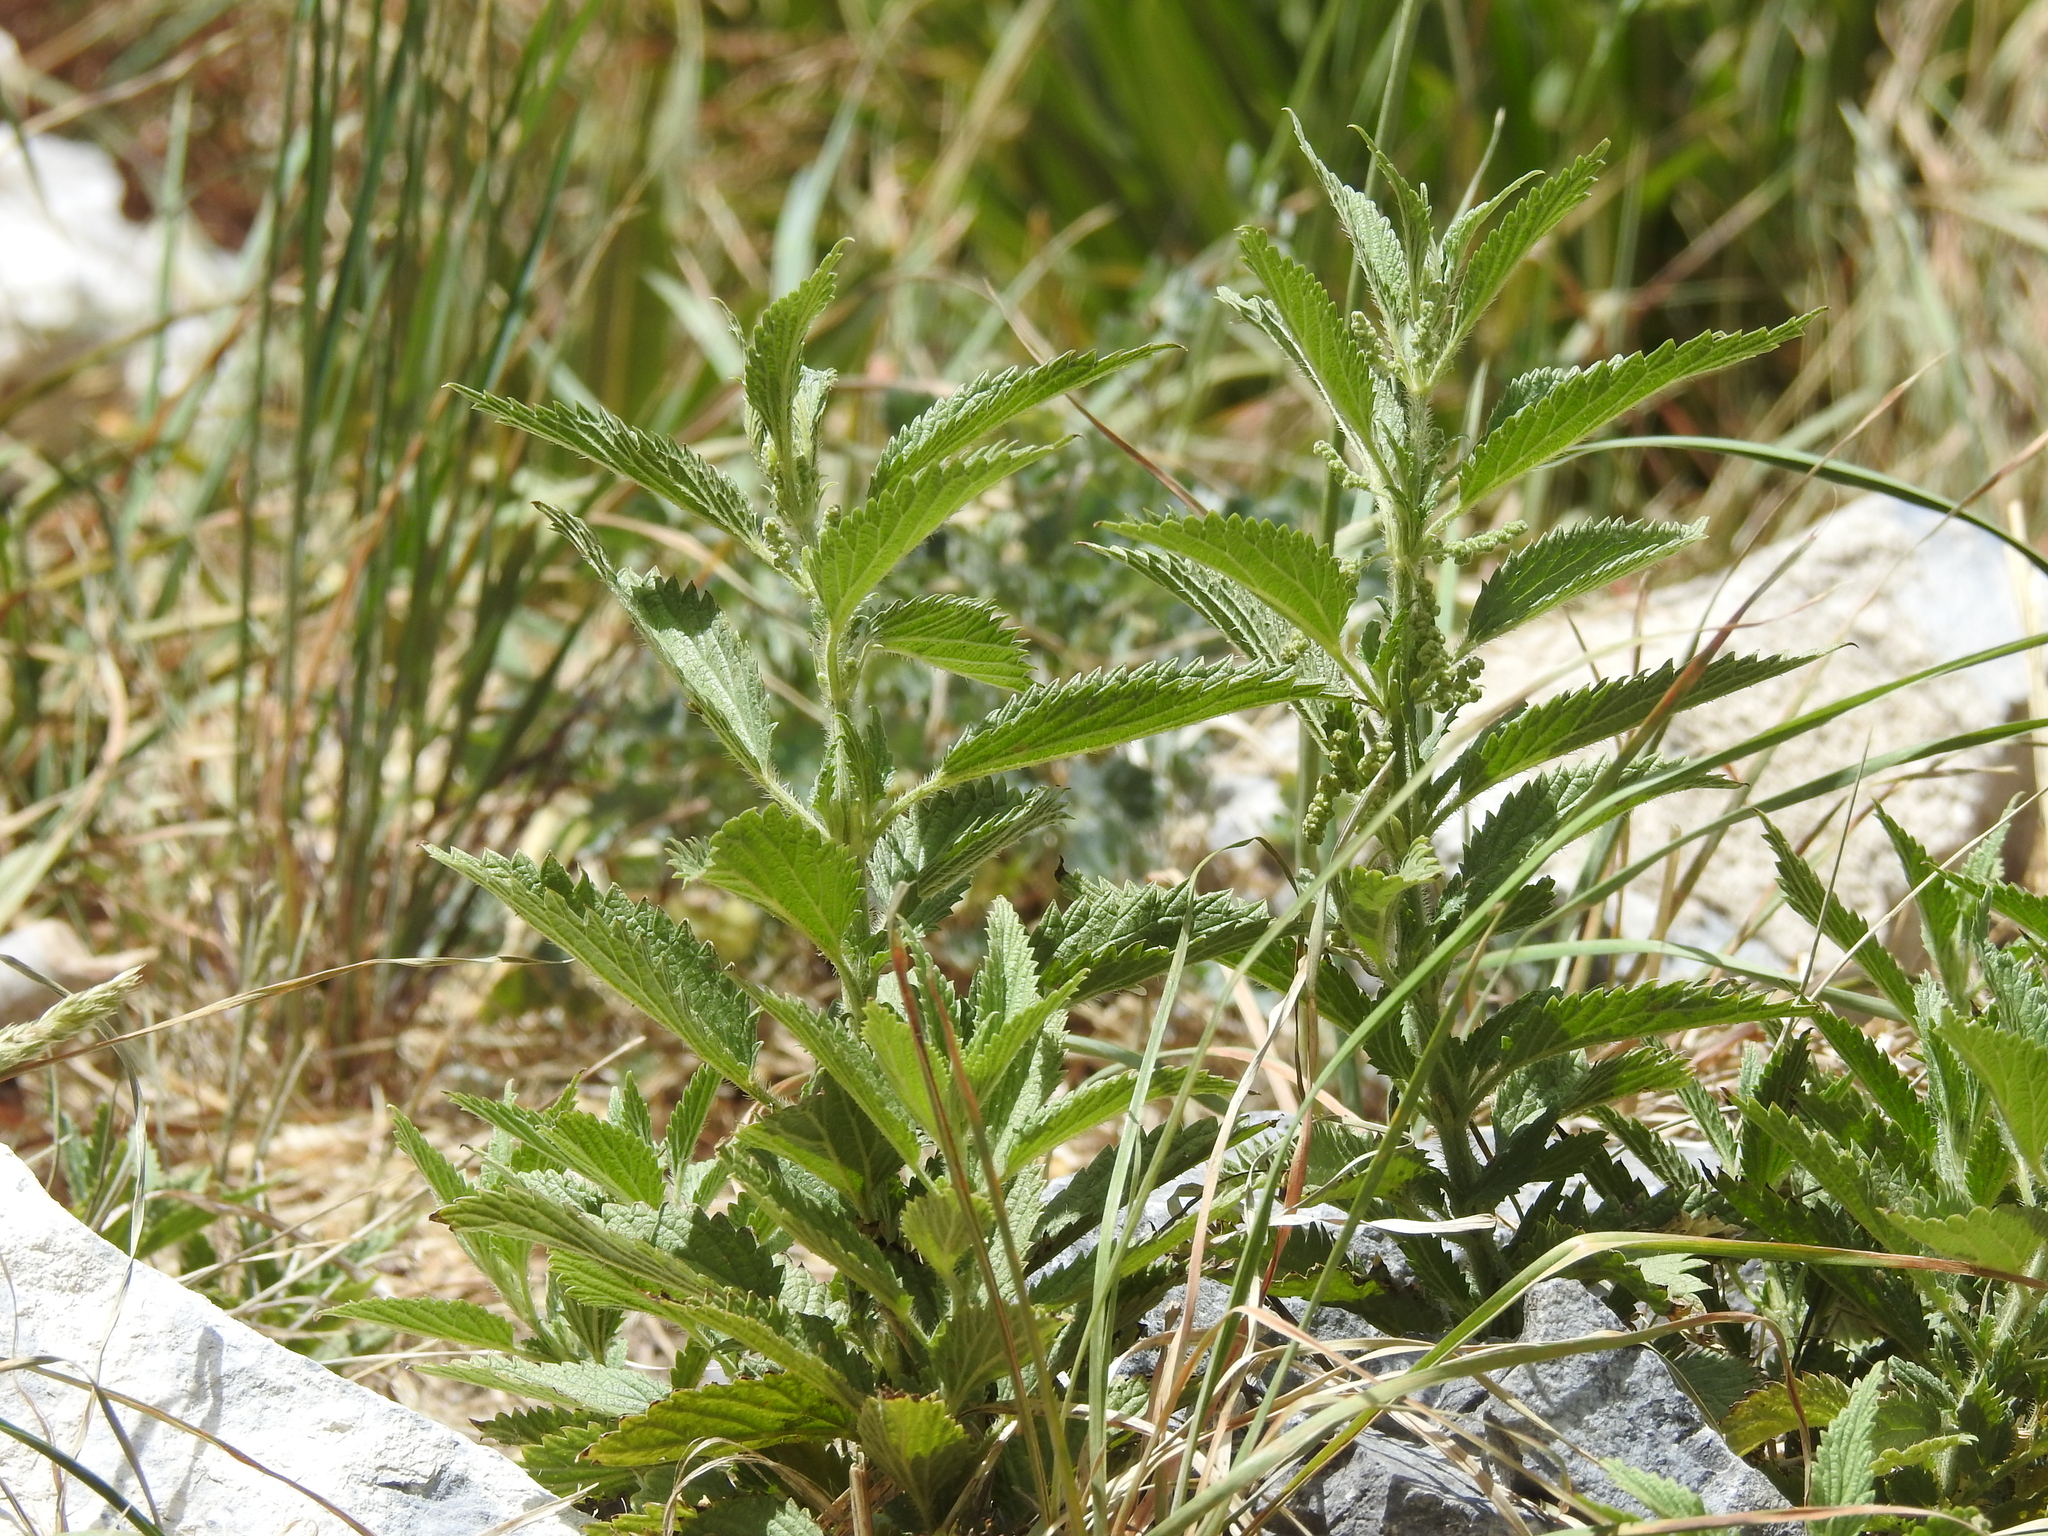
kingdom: Plantae
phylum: Tracheophyta
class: Magnoliopsida
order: Rosales
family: Urticaceae
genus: Urtica
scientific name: Urtica gracilis
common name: Slender stinging nettle
